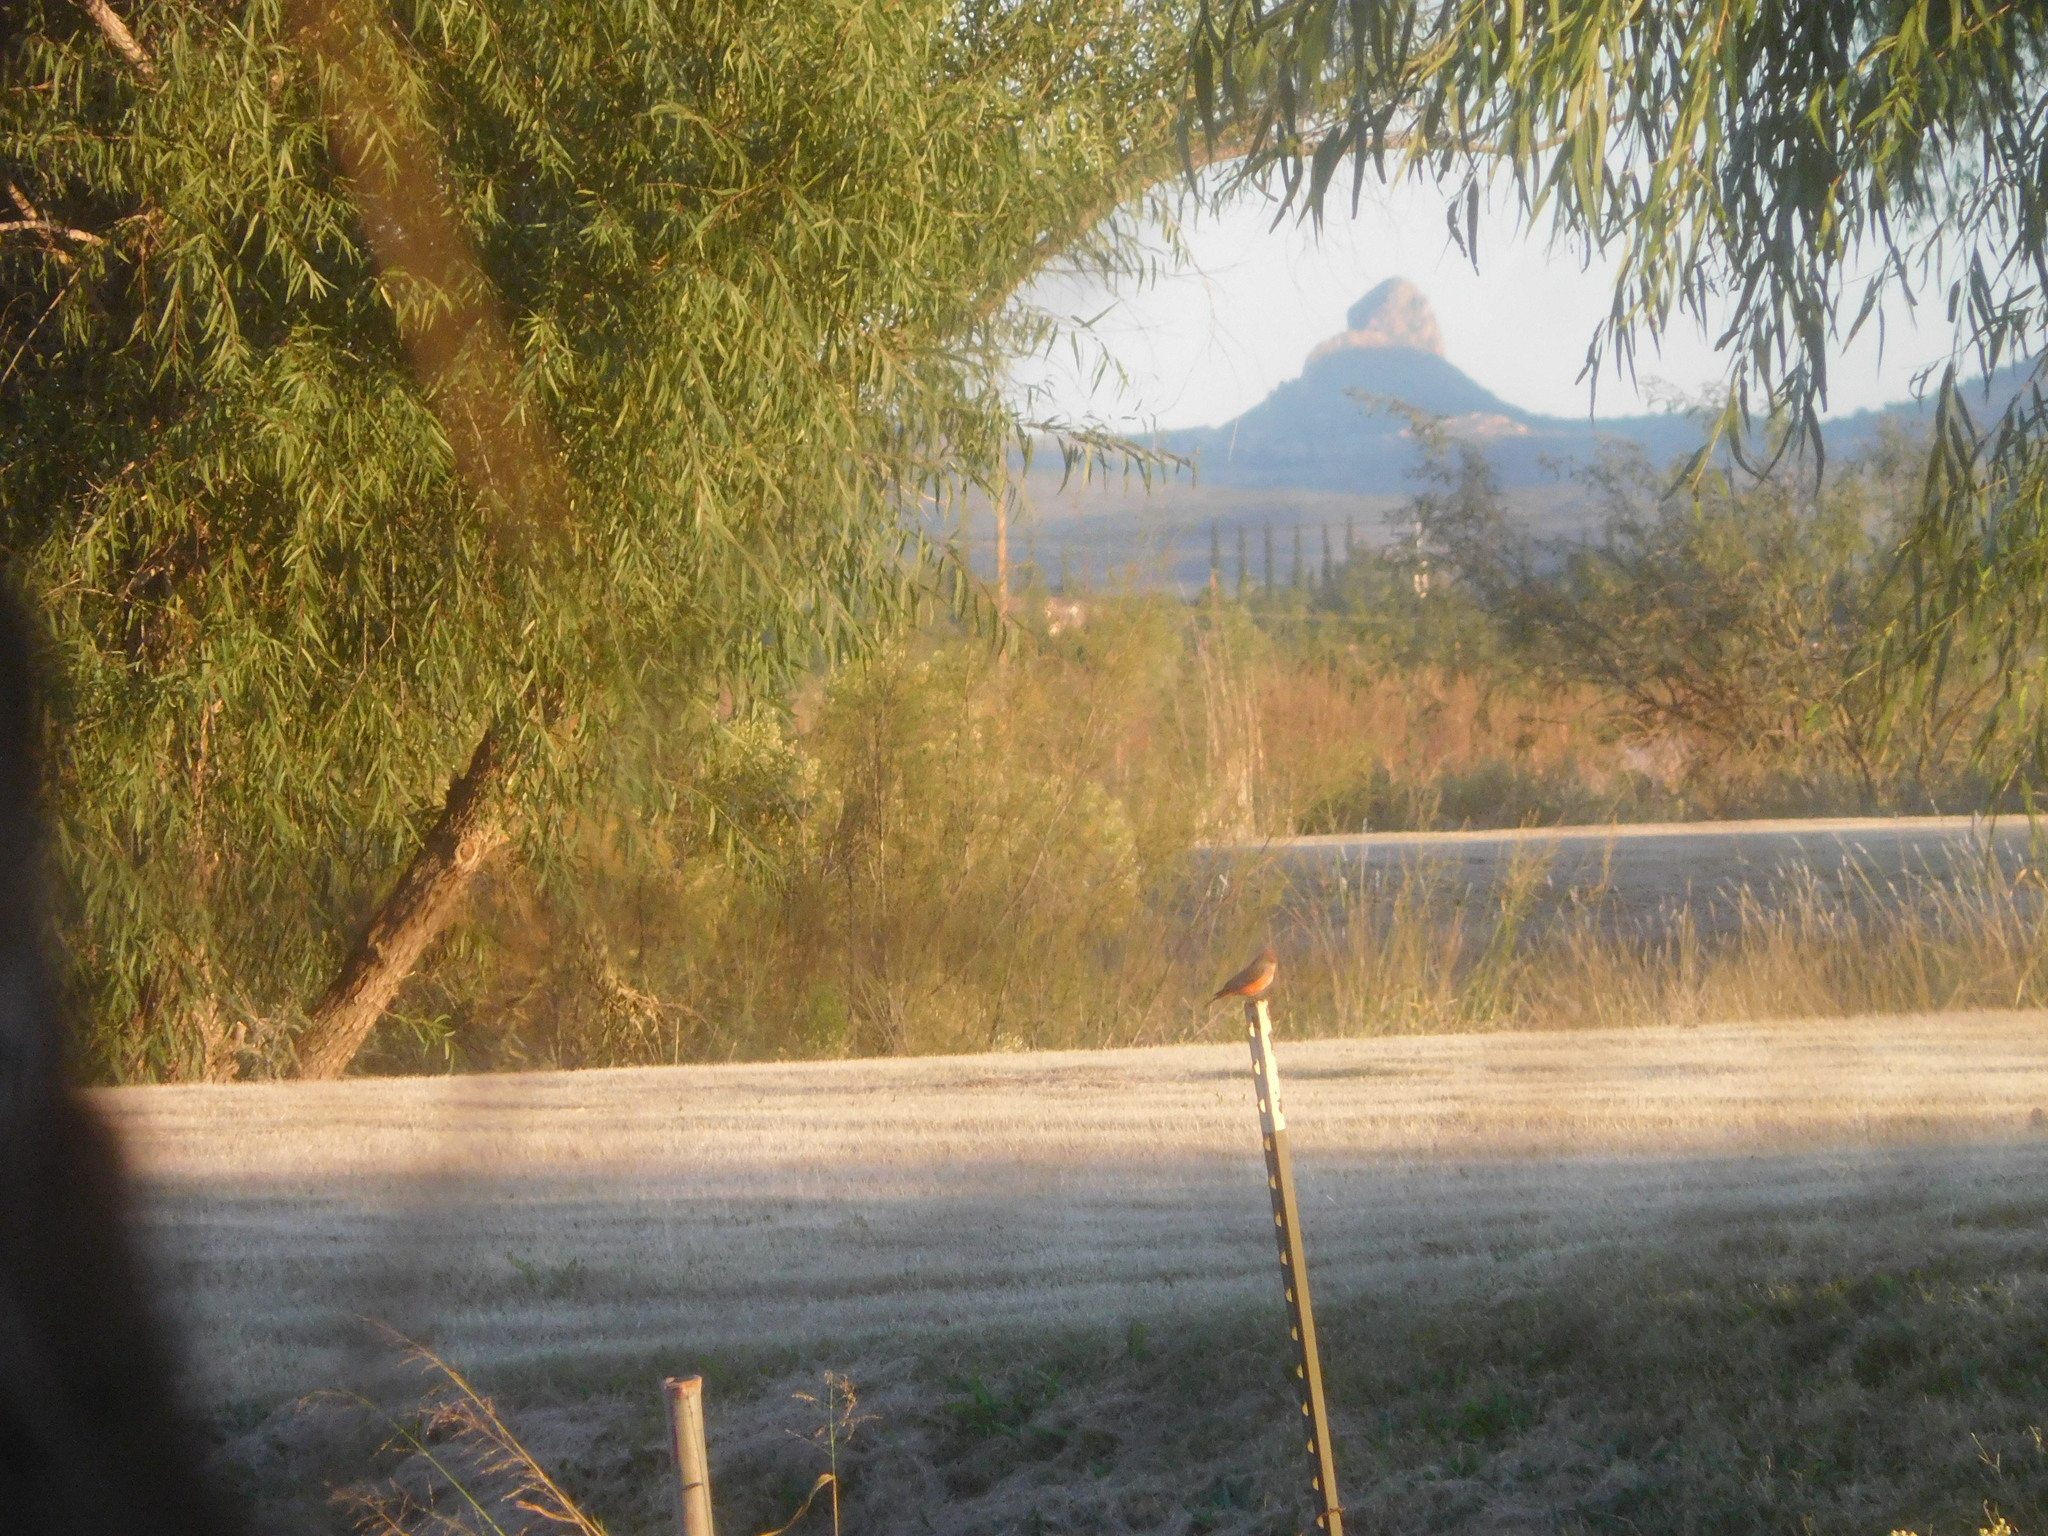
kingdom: Animalia
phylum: Chordata
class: Aves
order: Passeriformes
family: Tyrannidae
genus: Pyrocephalus
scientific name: Pyrocephalus rubinus
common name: Vermilion flycatcher
